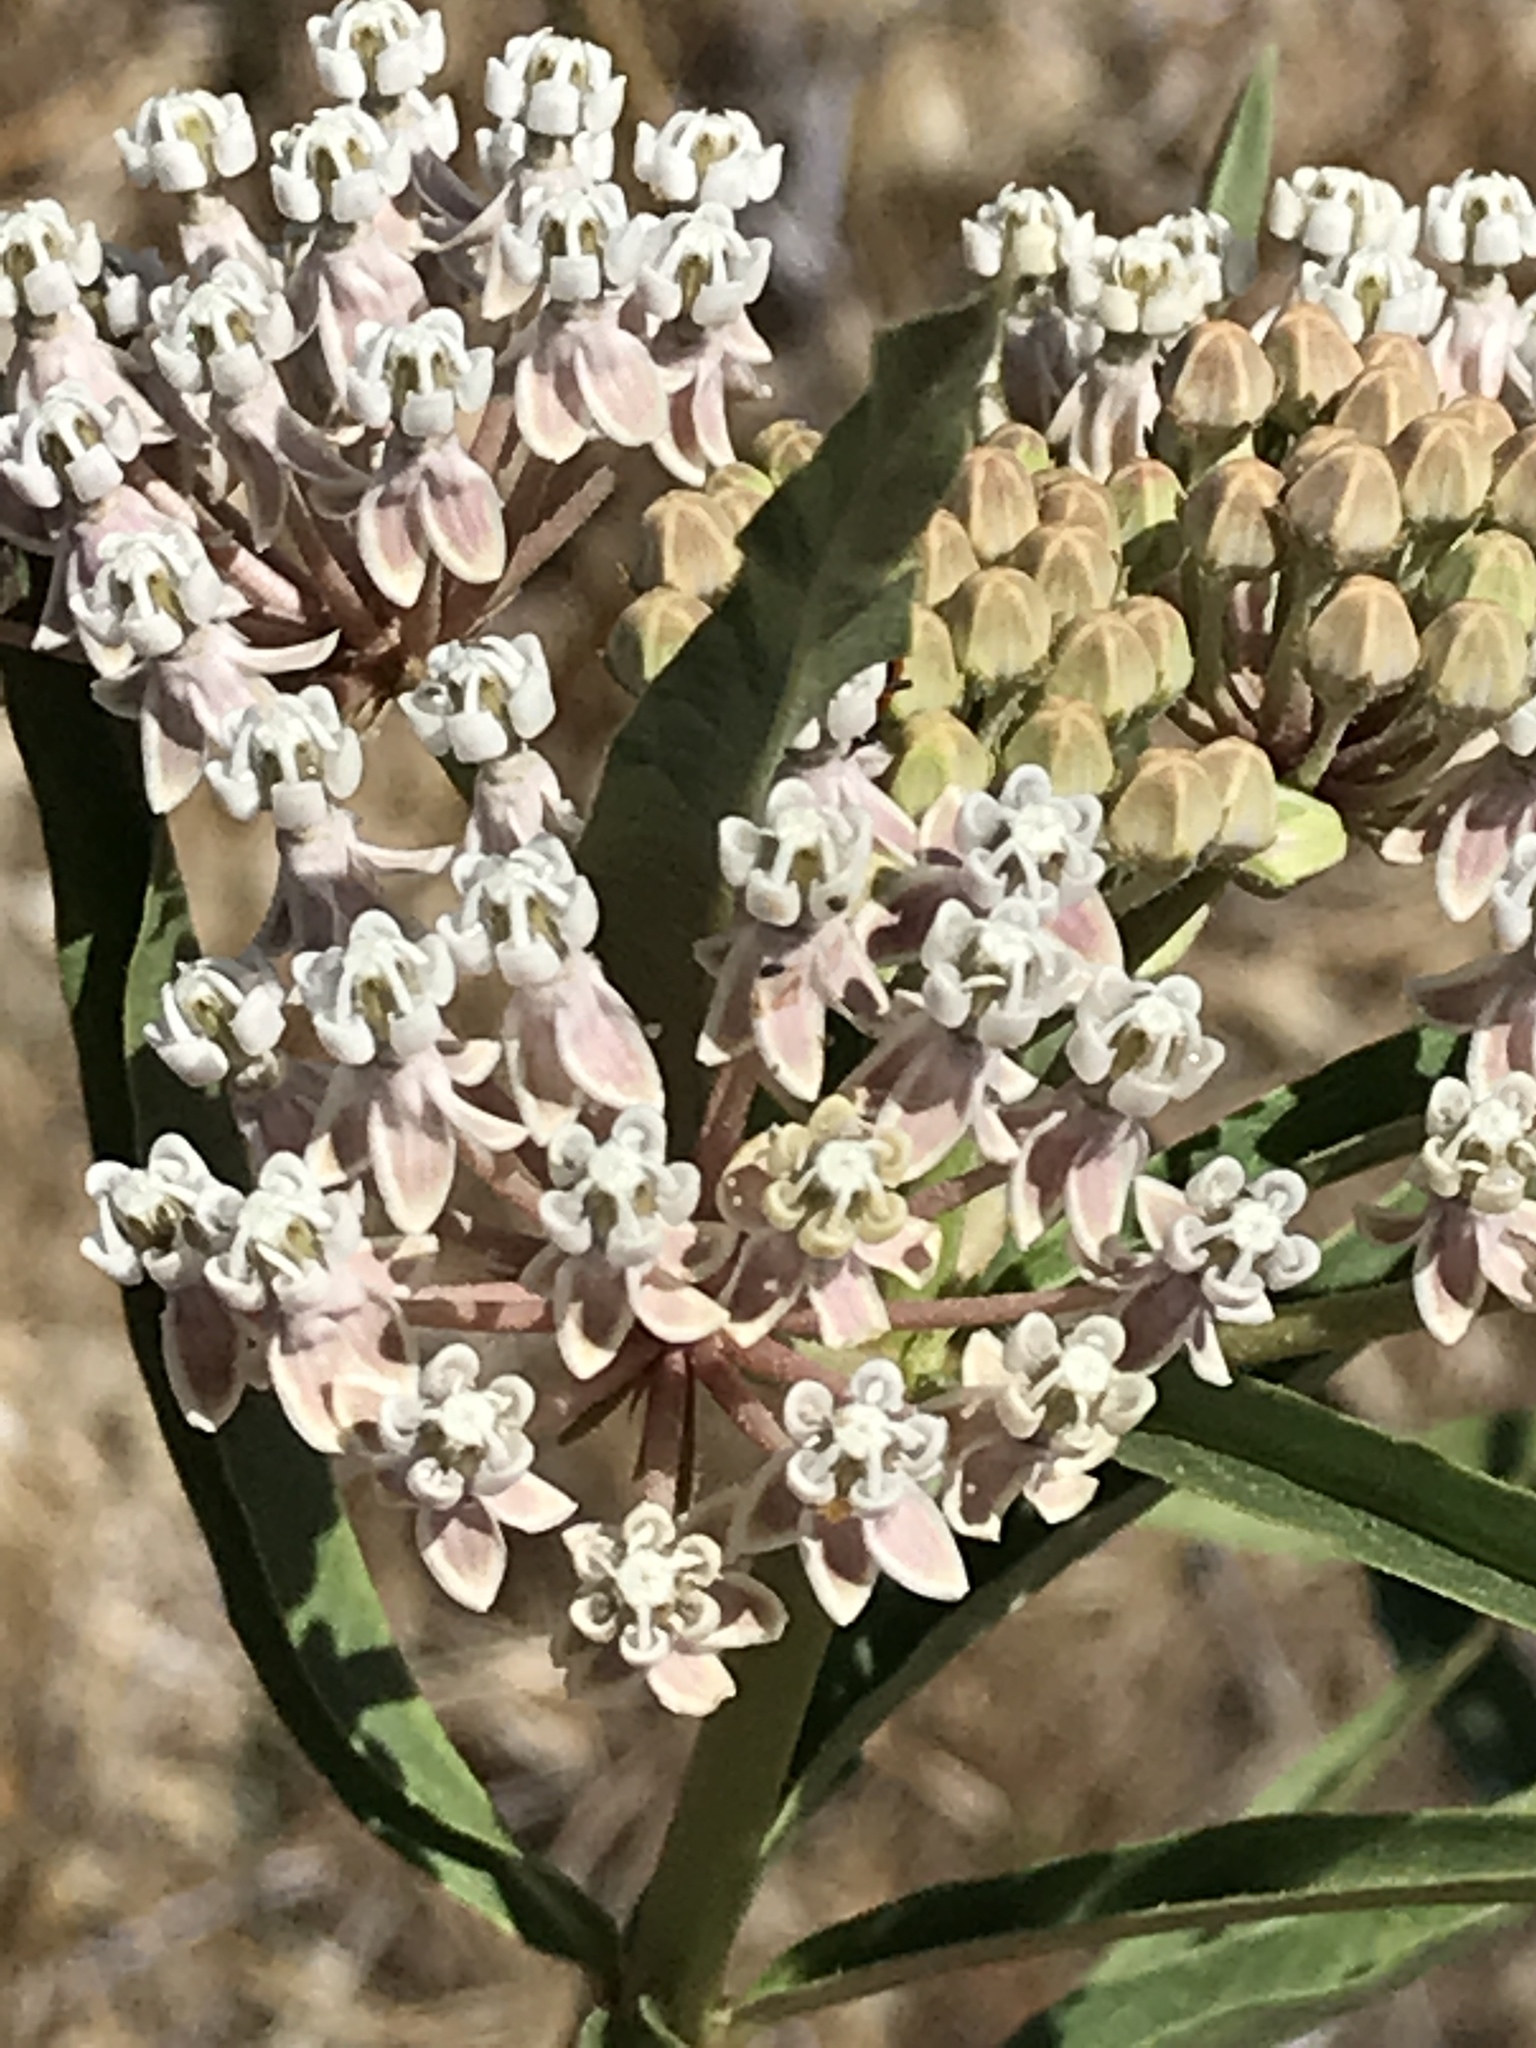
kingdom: Plantae
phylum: Tracheophyta
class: Magnoliopsida
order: Gentianales
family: Apocynaceae
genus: Asclepias
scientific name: Asclepias fascicularis
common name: Mexican milkweed
